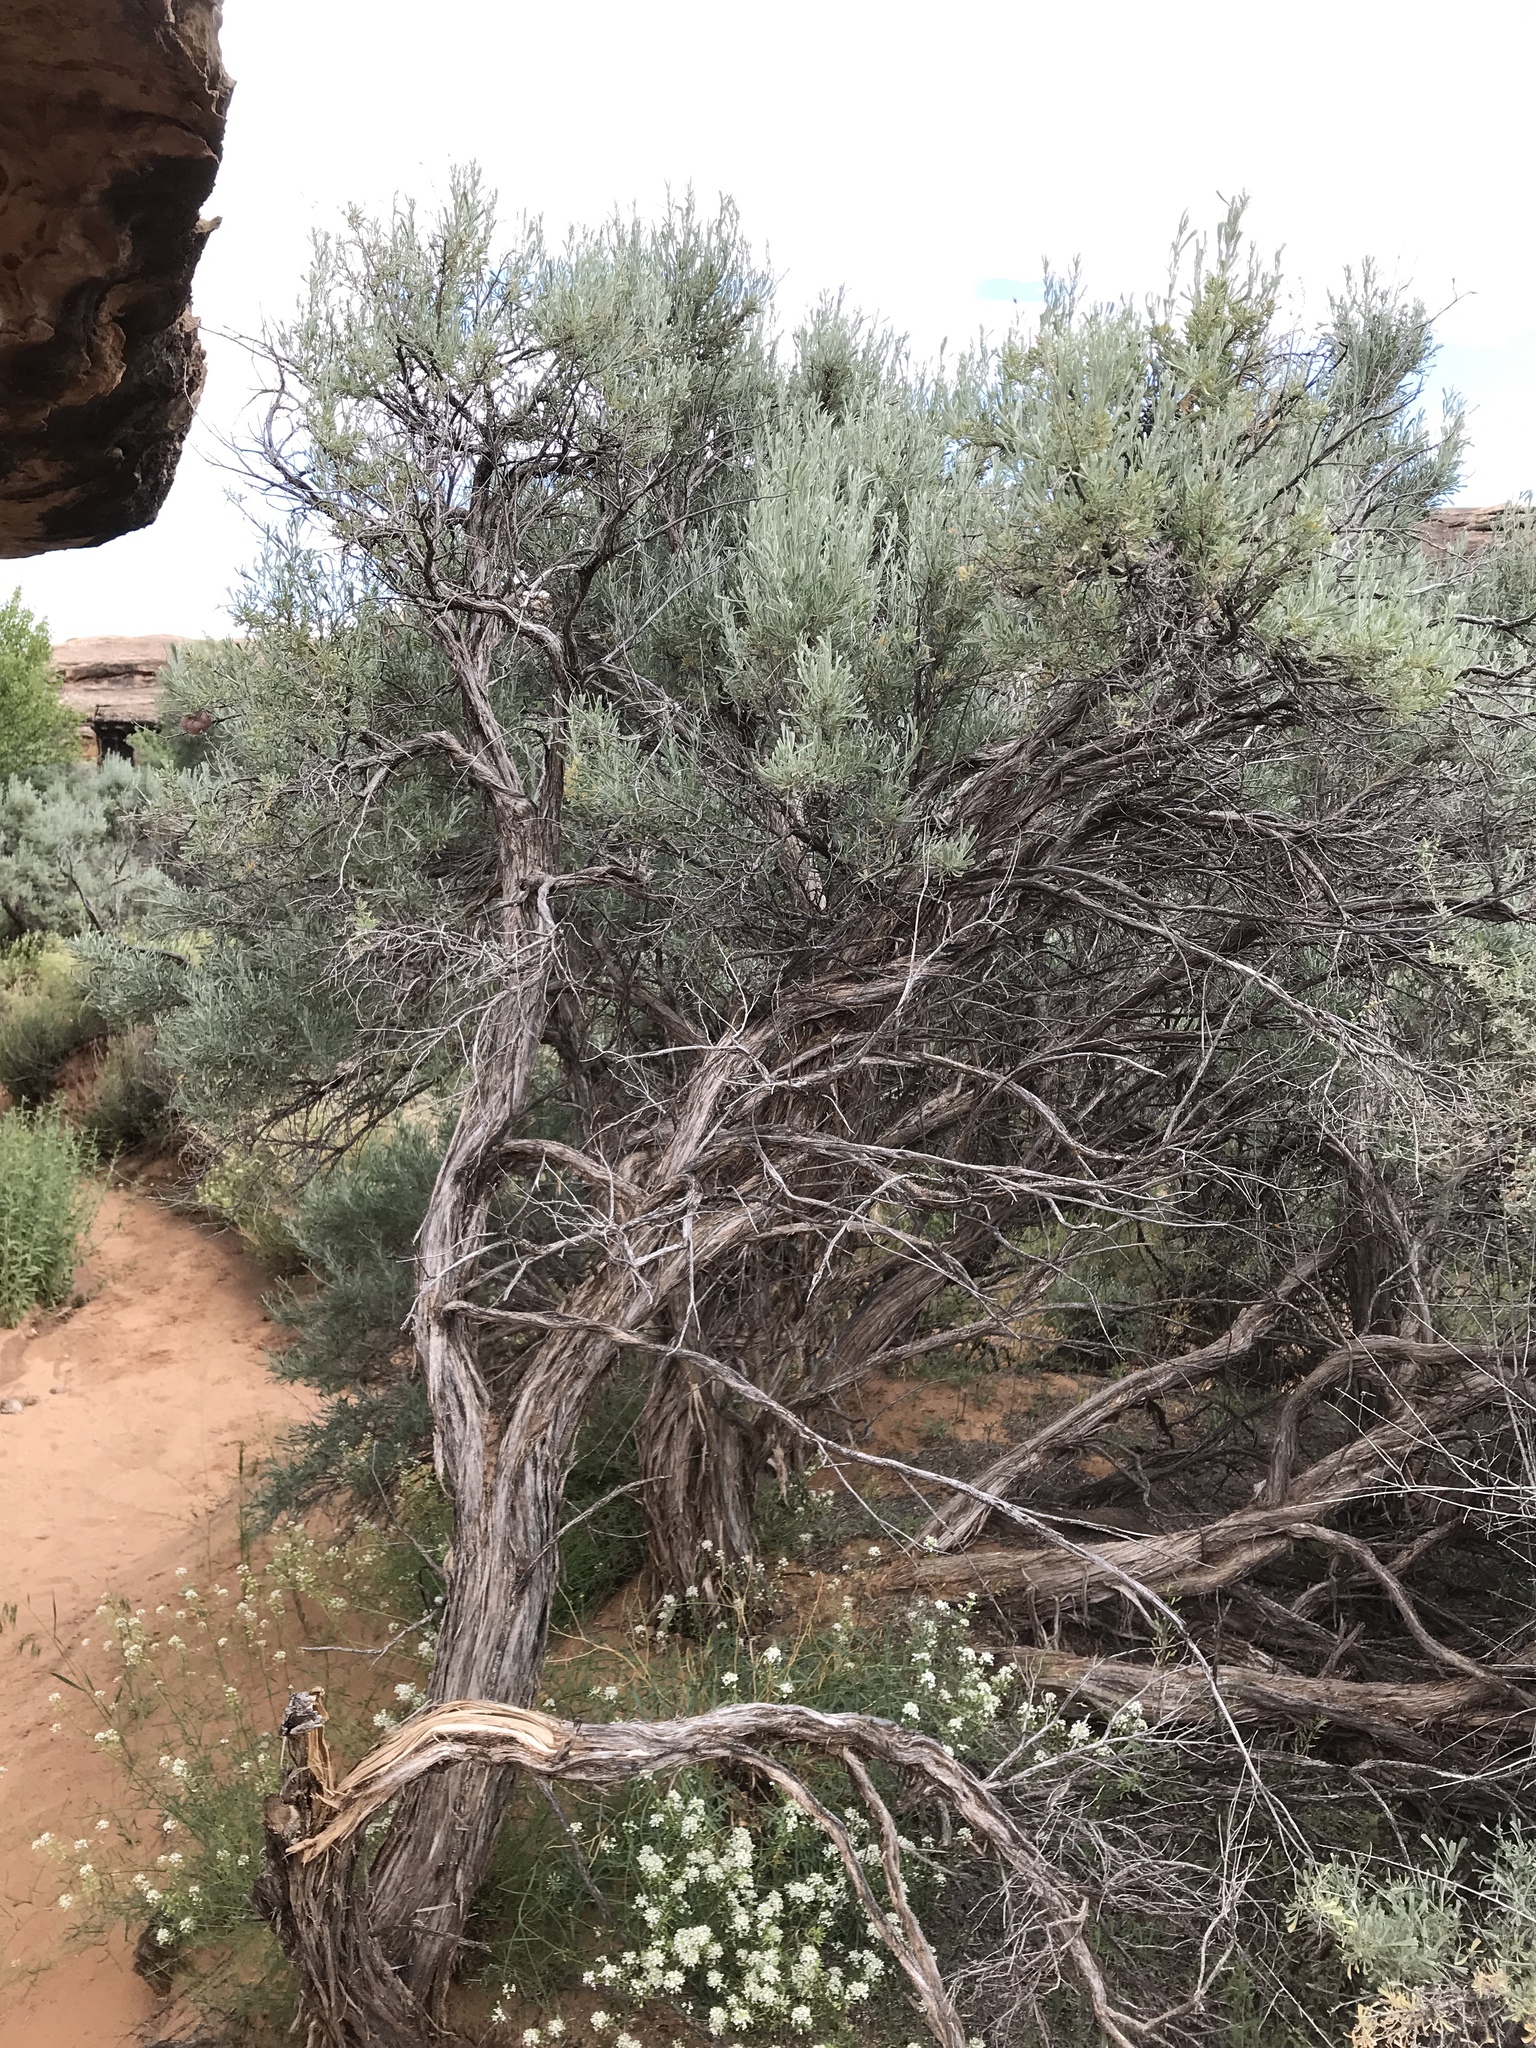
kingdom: Plantae
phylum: Tracheophyta
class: Magnoliopsida
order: Asterales
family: Asteraceae
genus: Artemisia
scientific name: Artemisia tridentata
